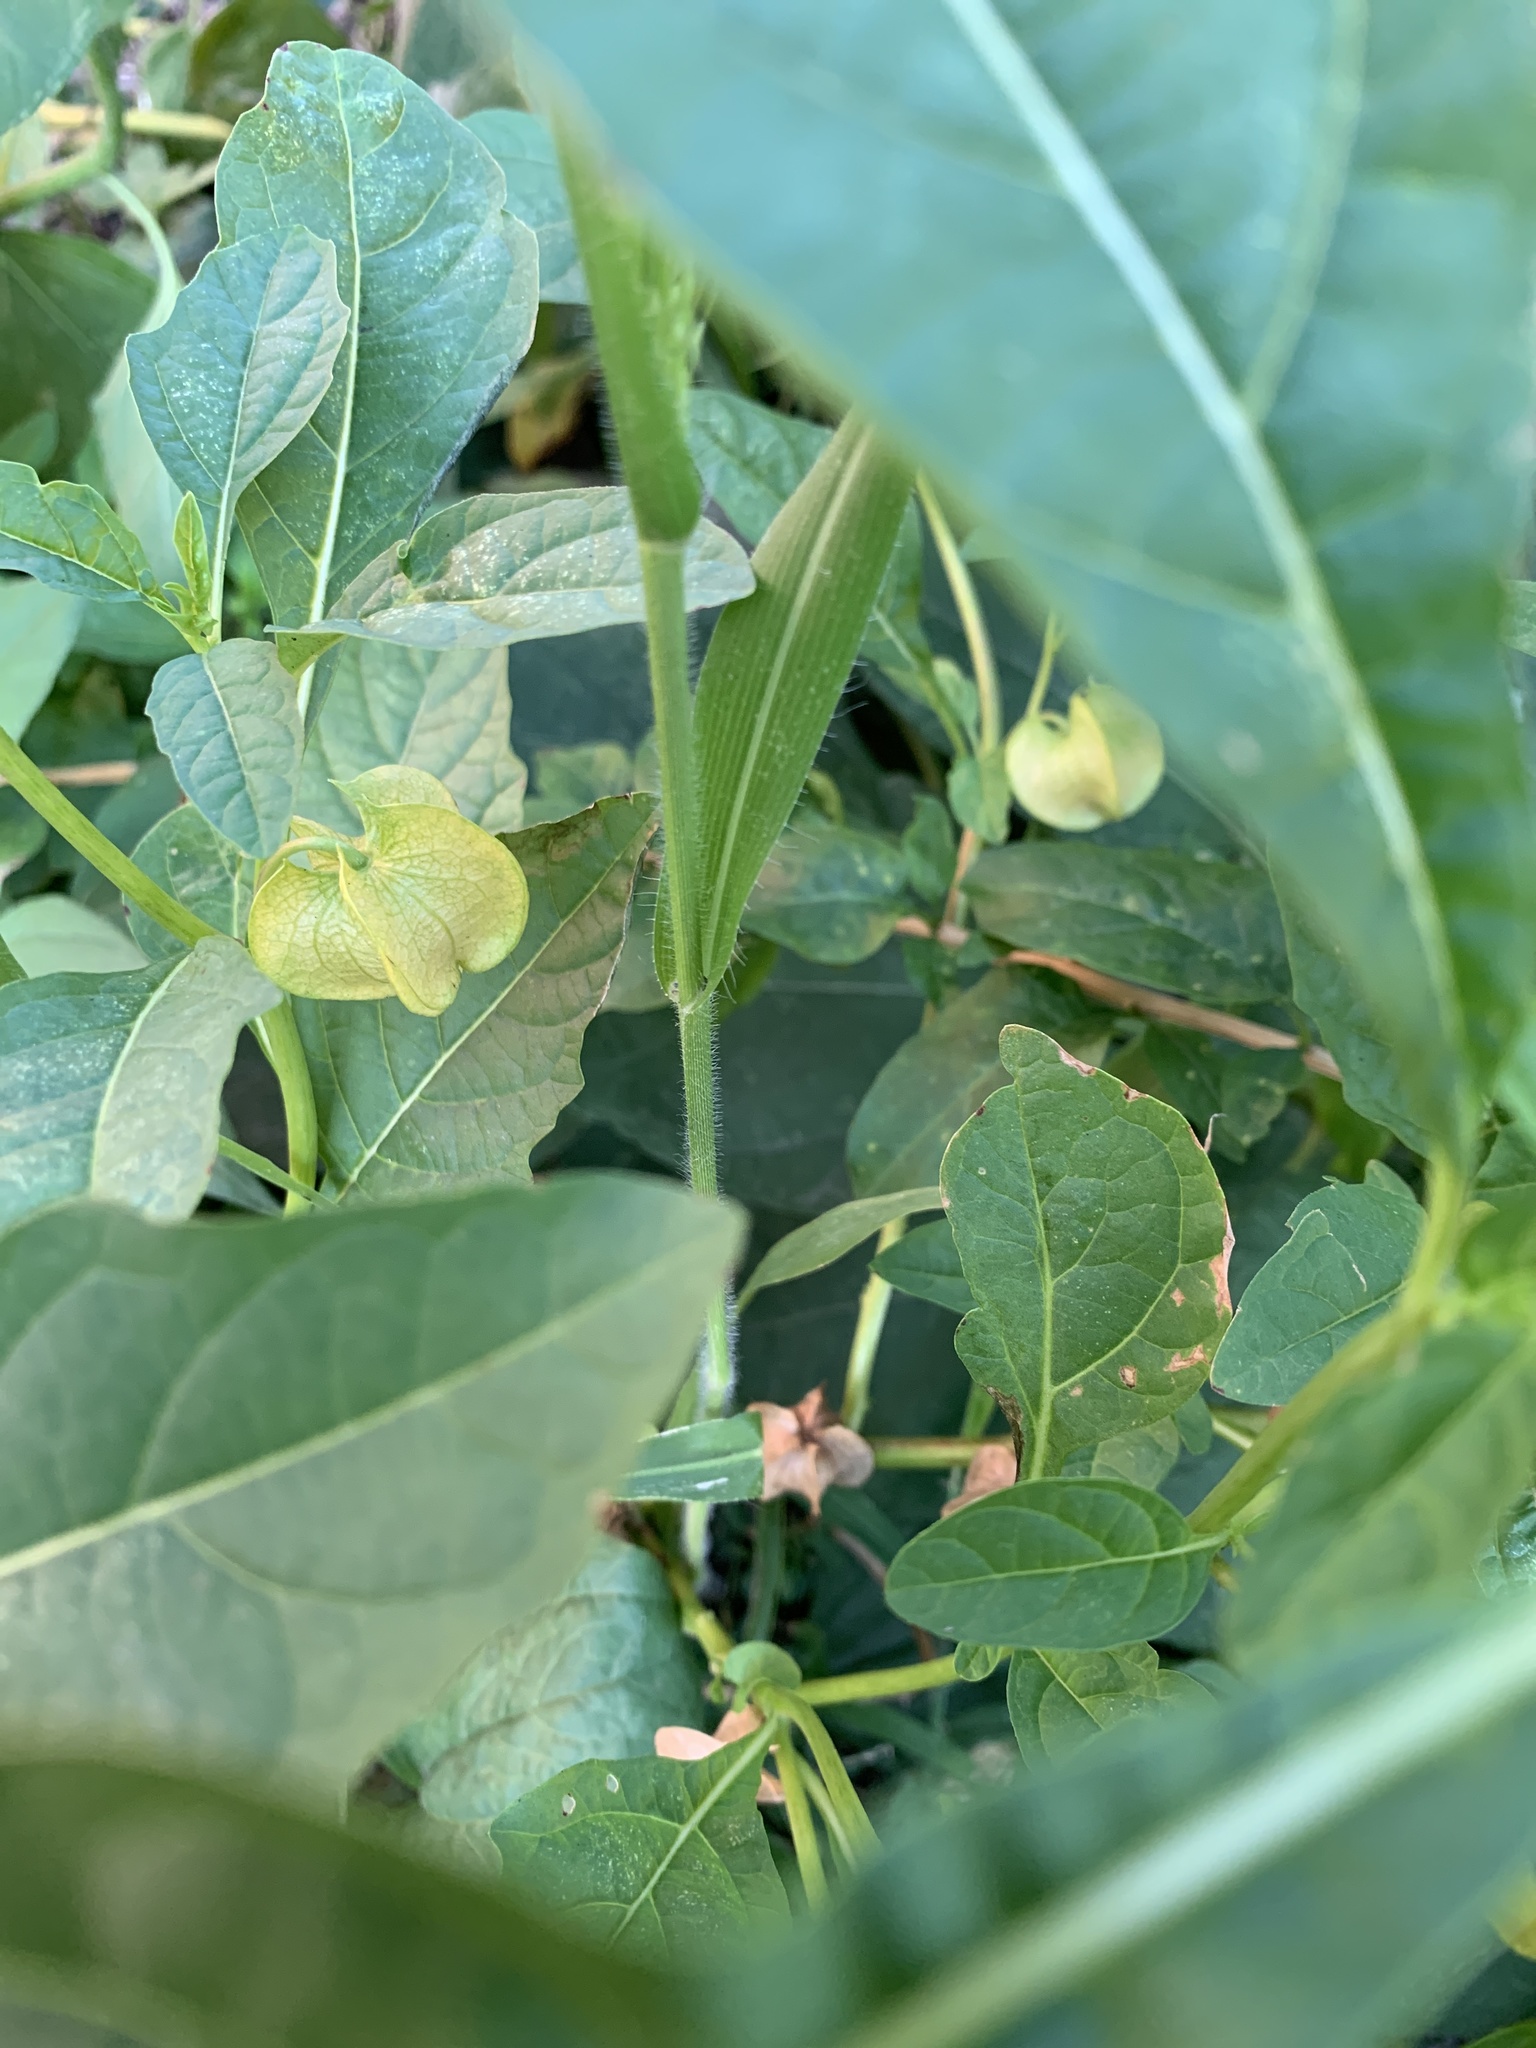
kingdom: Plantae
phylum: Tracheophyta
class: Liliopsida
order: Poales
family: Poaceae
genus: Panicum
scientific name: Panicum capillare
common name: Witch-grass
